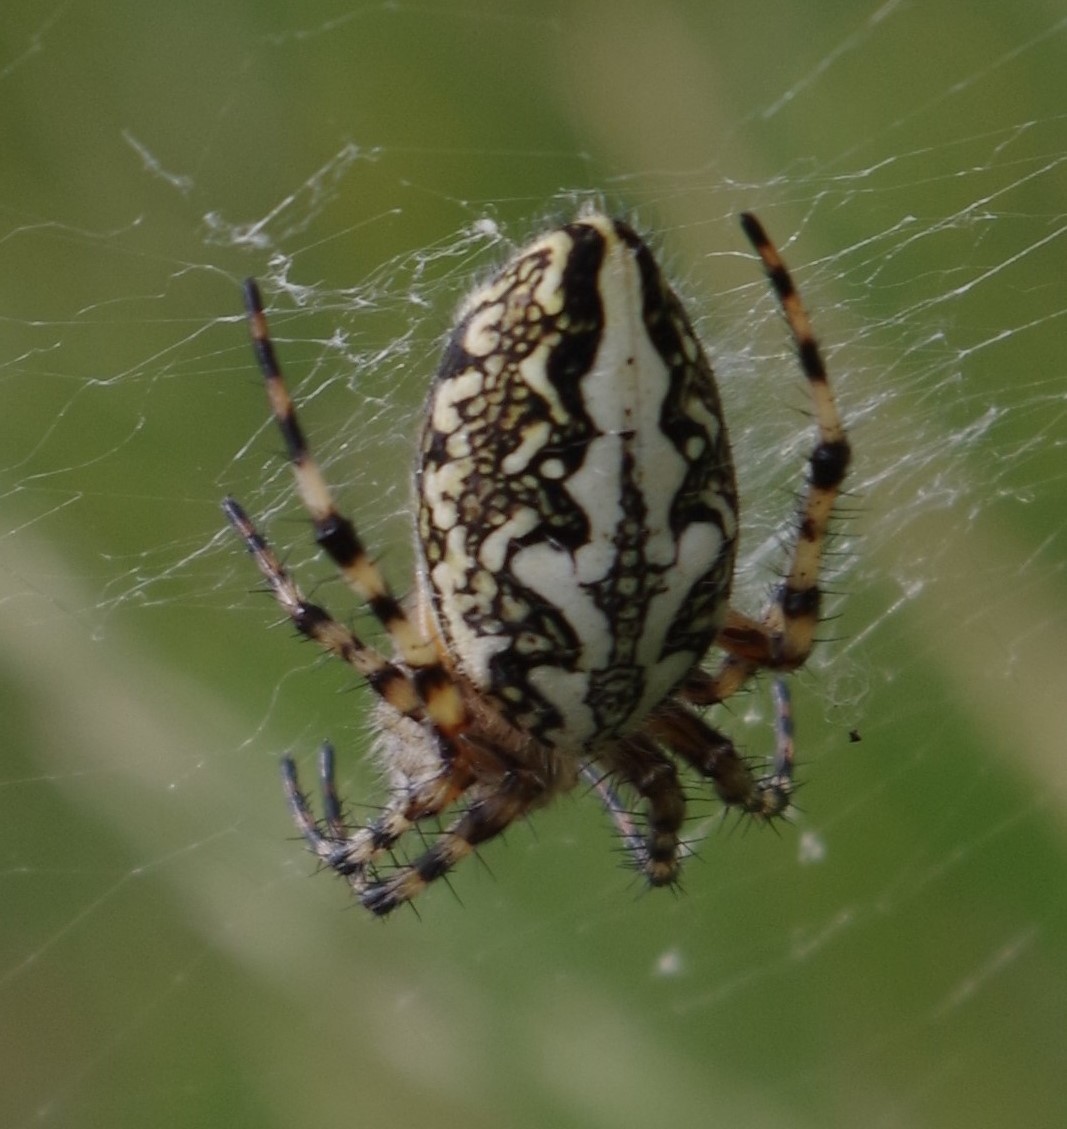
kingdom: Animalia
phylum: Arthropoda
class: Arachnida
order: Araneae
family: Araneidae
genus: Aculepeira
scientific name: Aculepeira ceropegia
